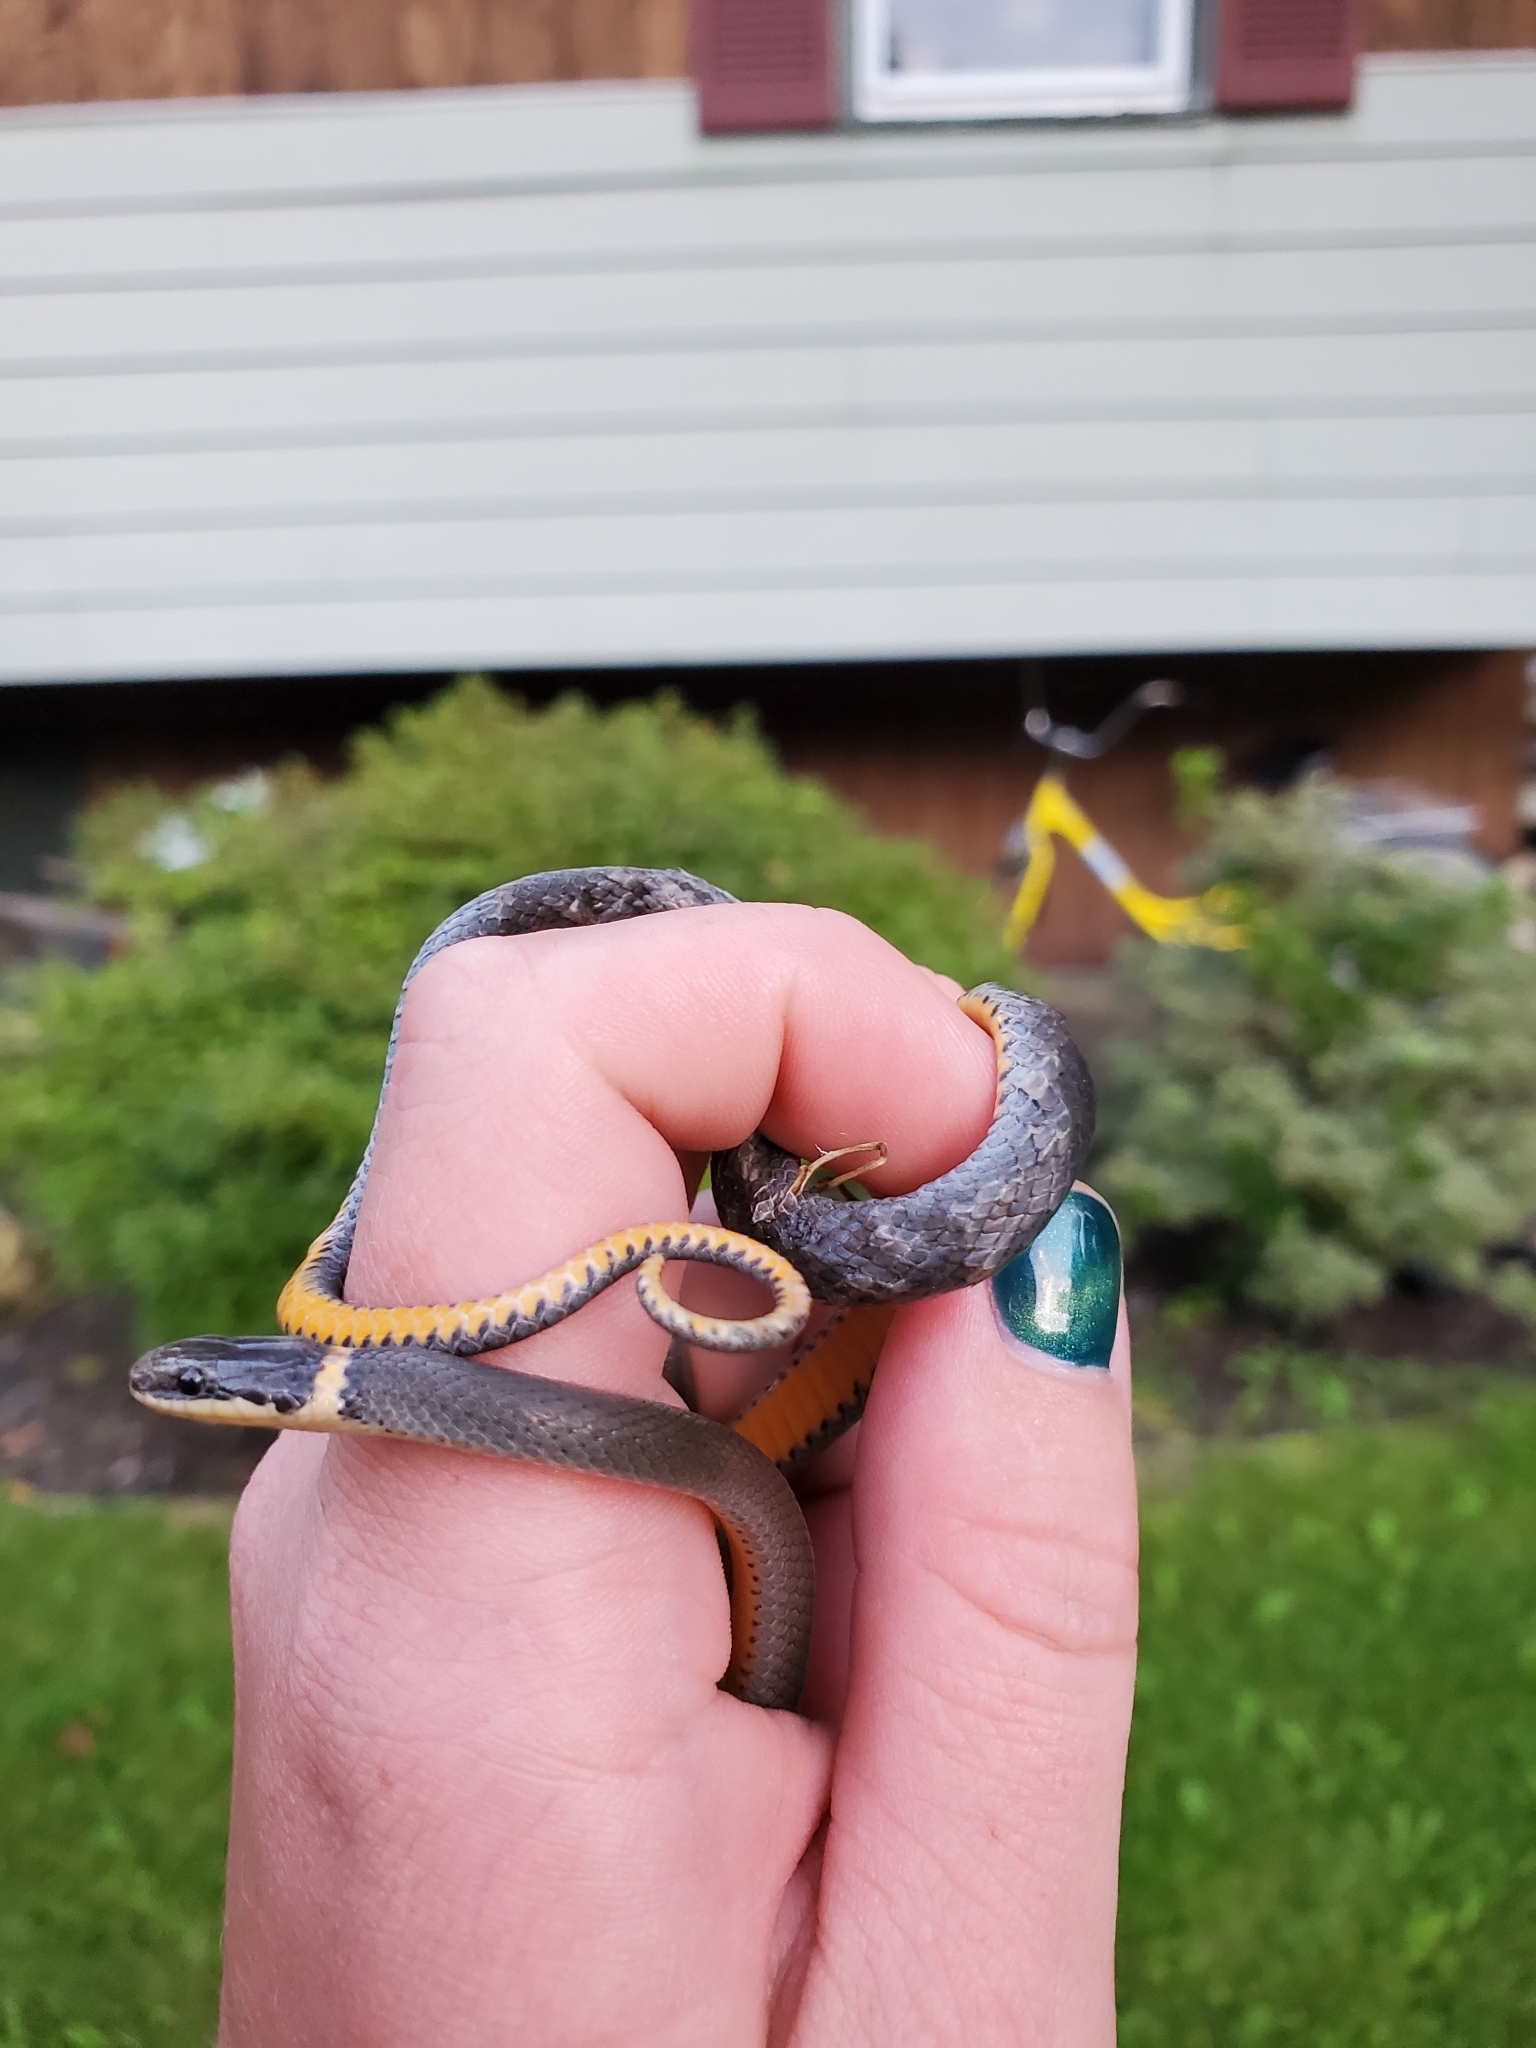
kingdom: Animalia
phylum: Chordata
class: Squamata
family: Colubridae
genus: Diadophis
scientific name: Diadophis punctatus
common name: Ringneck snake
